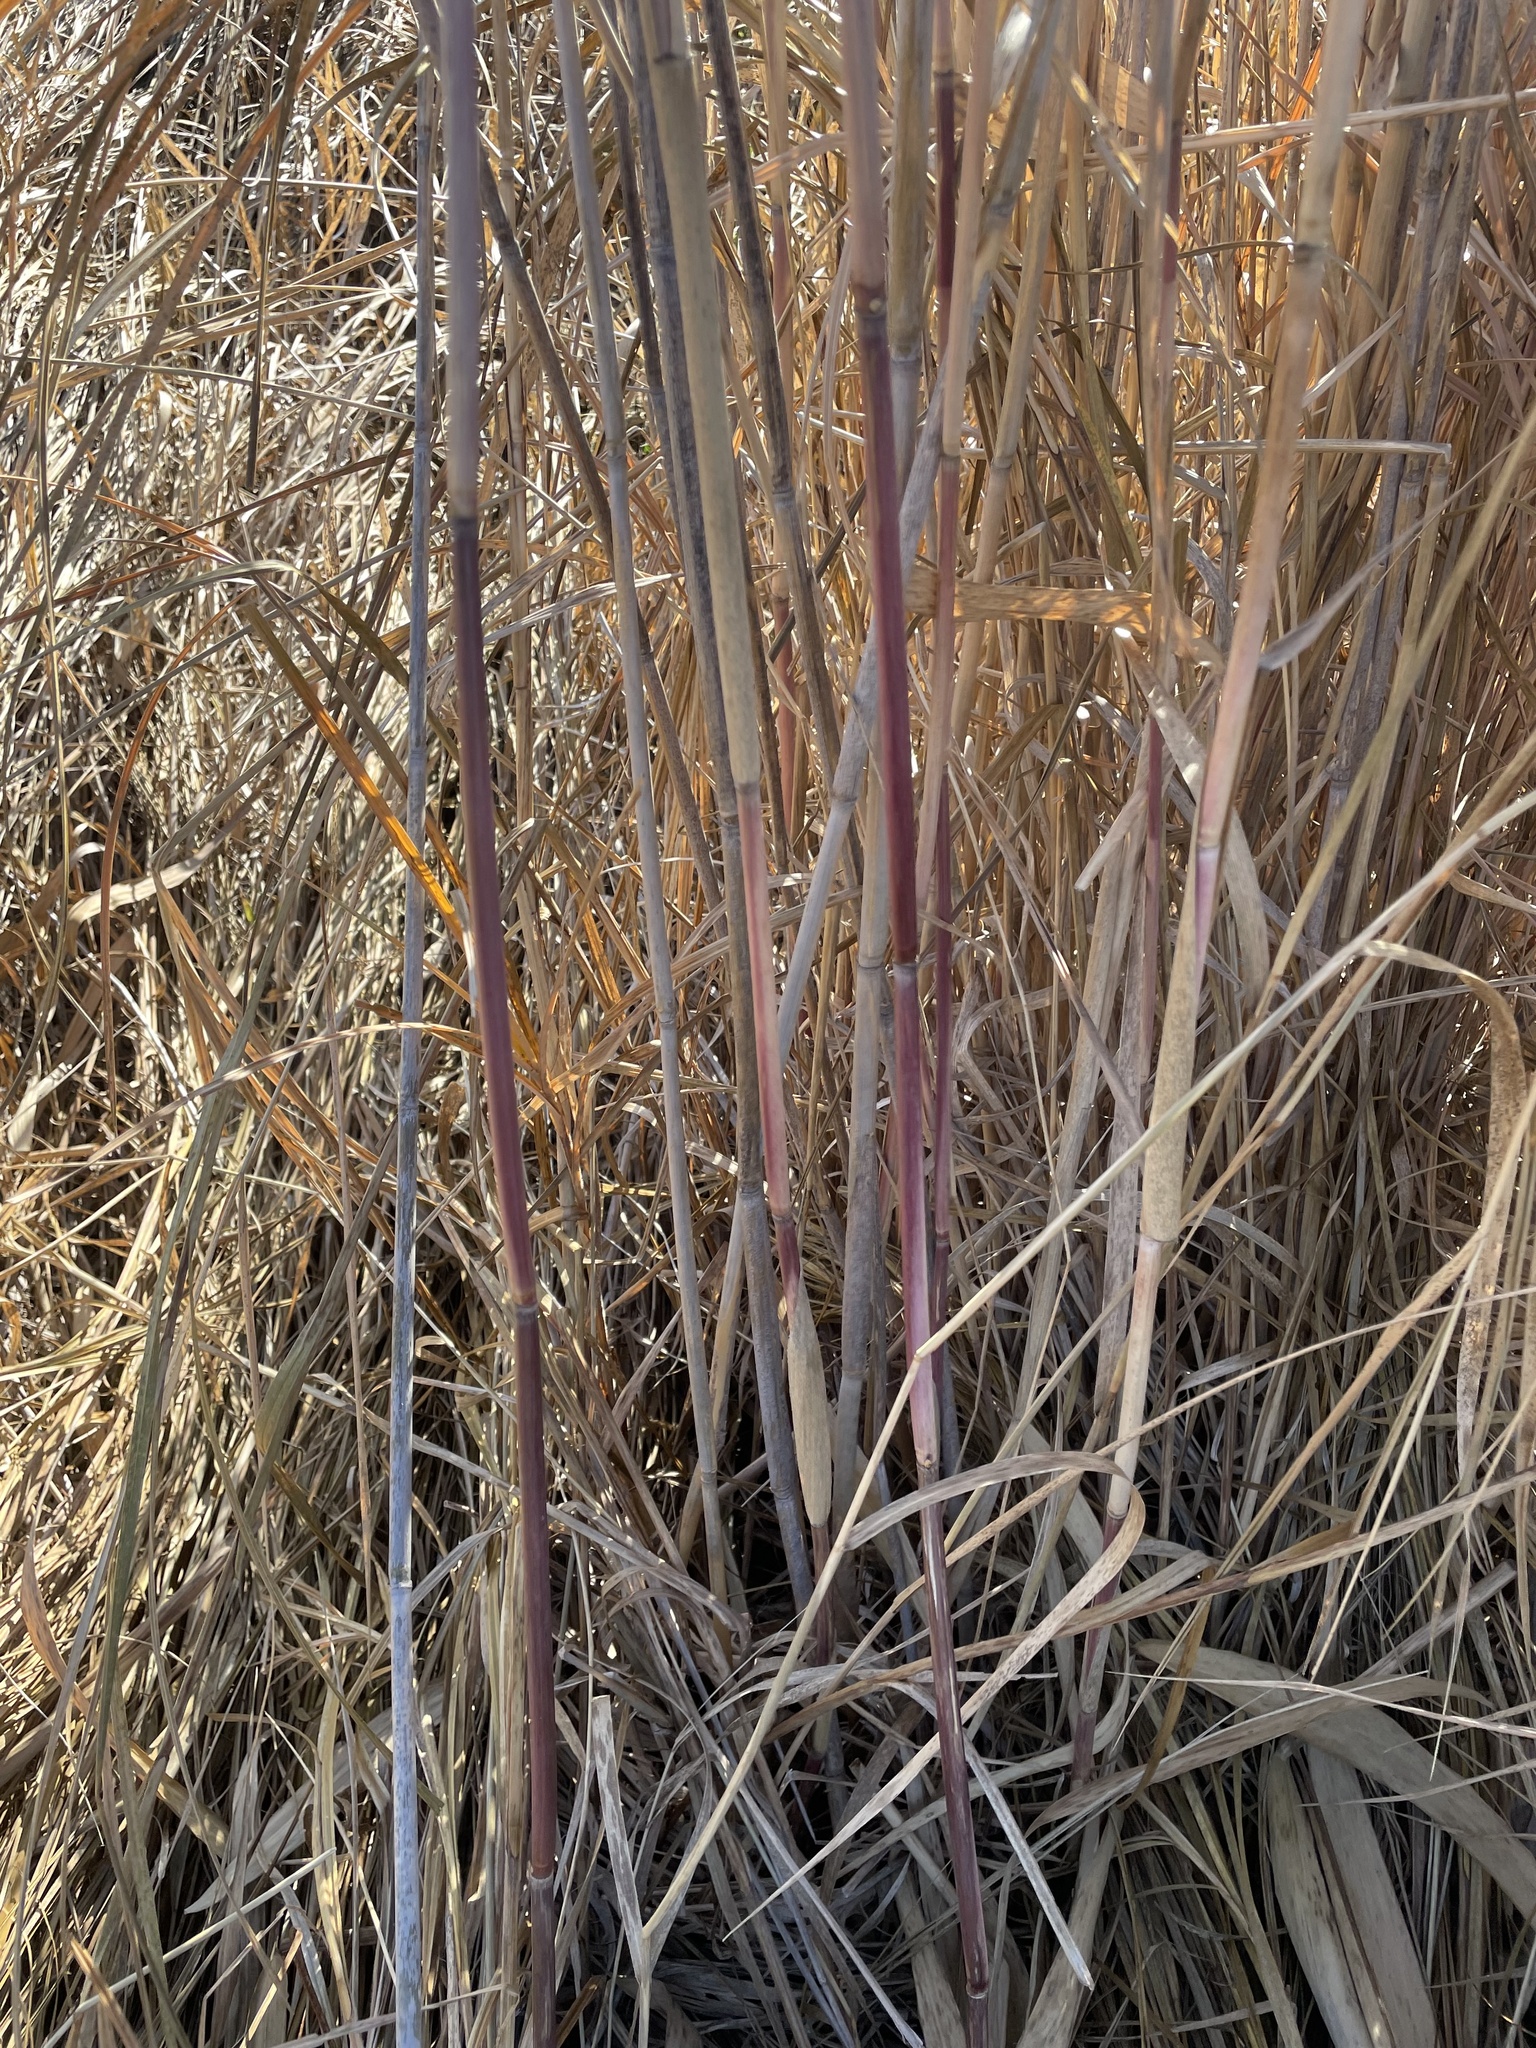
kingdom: Plantae
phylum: Tracheophyta
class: Liliopsida
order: Poales
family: Poaceae
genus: Phragmites
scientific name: Phragmites australis
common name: Common reed
